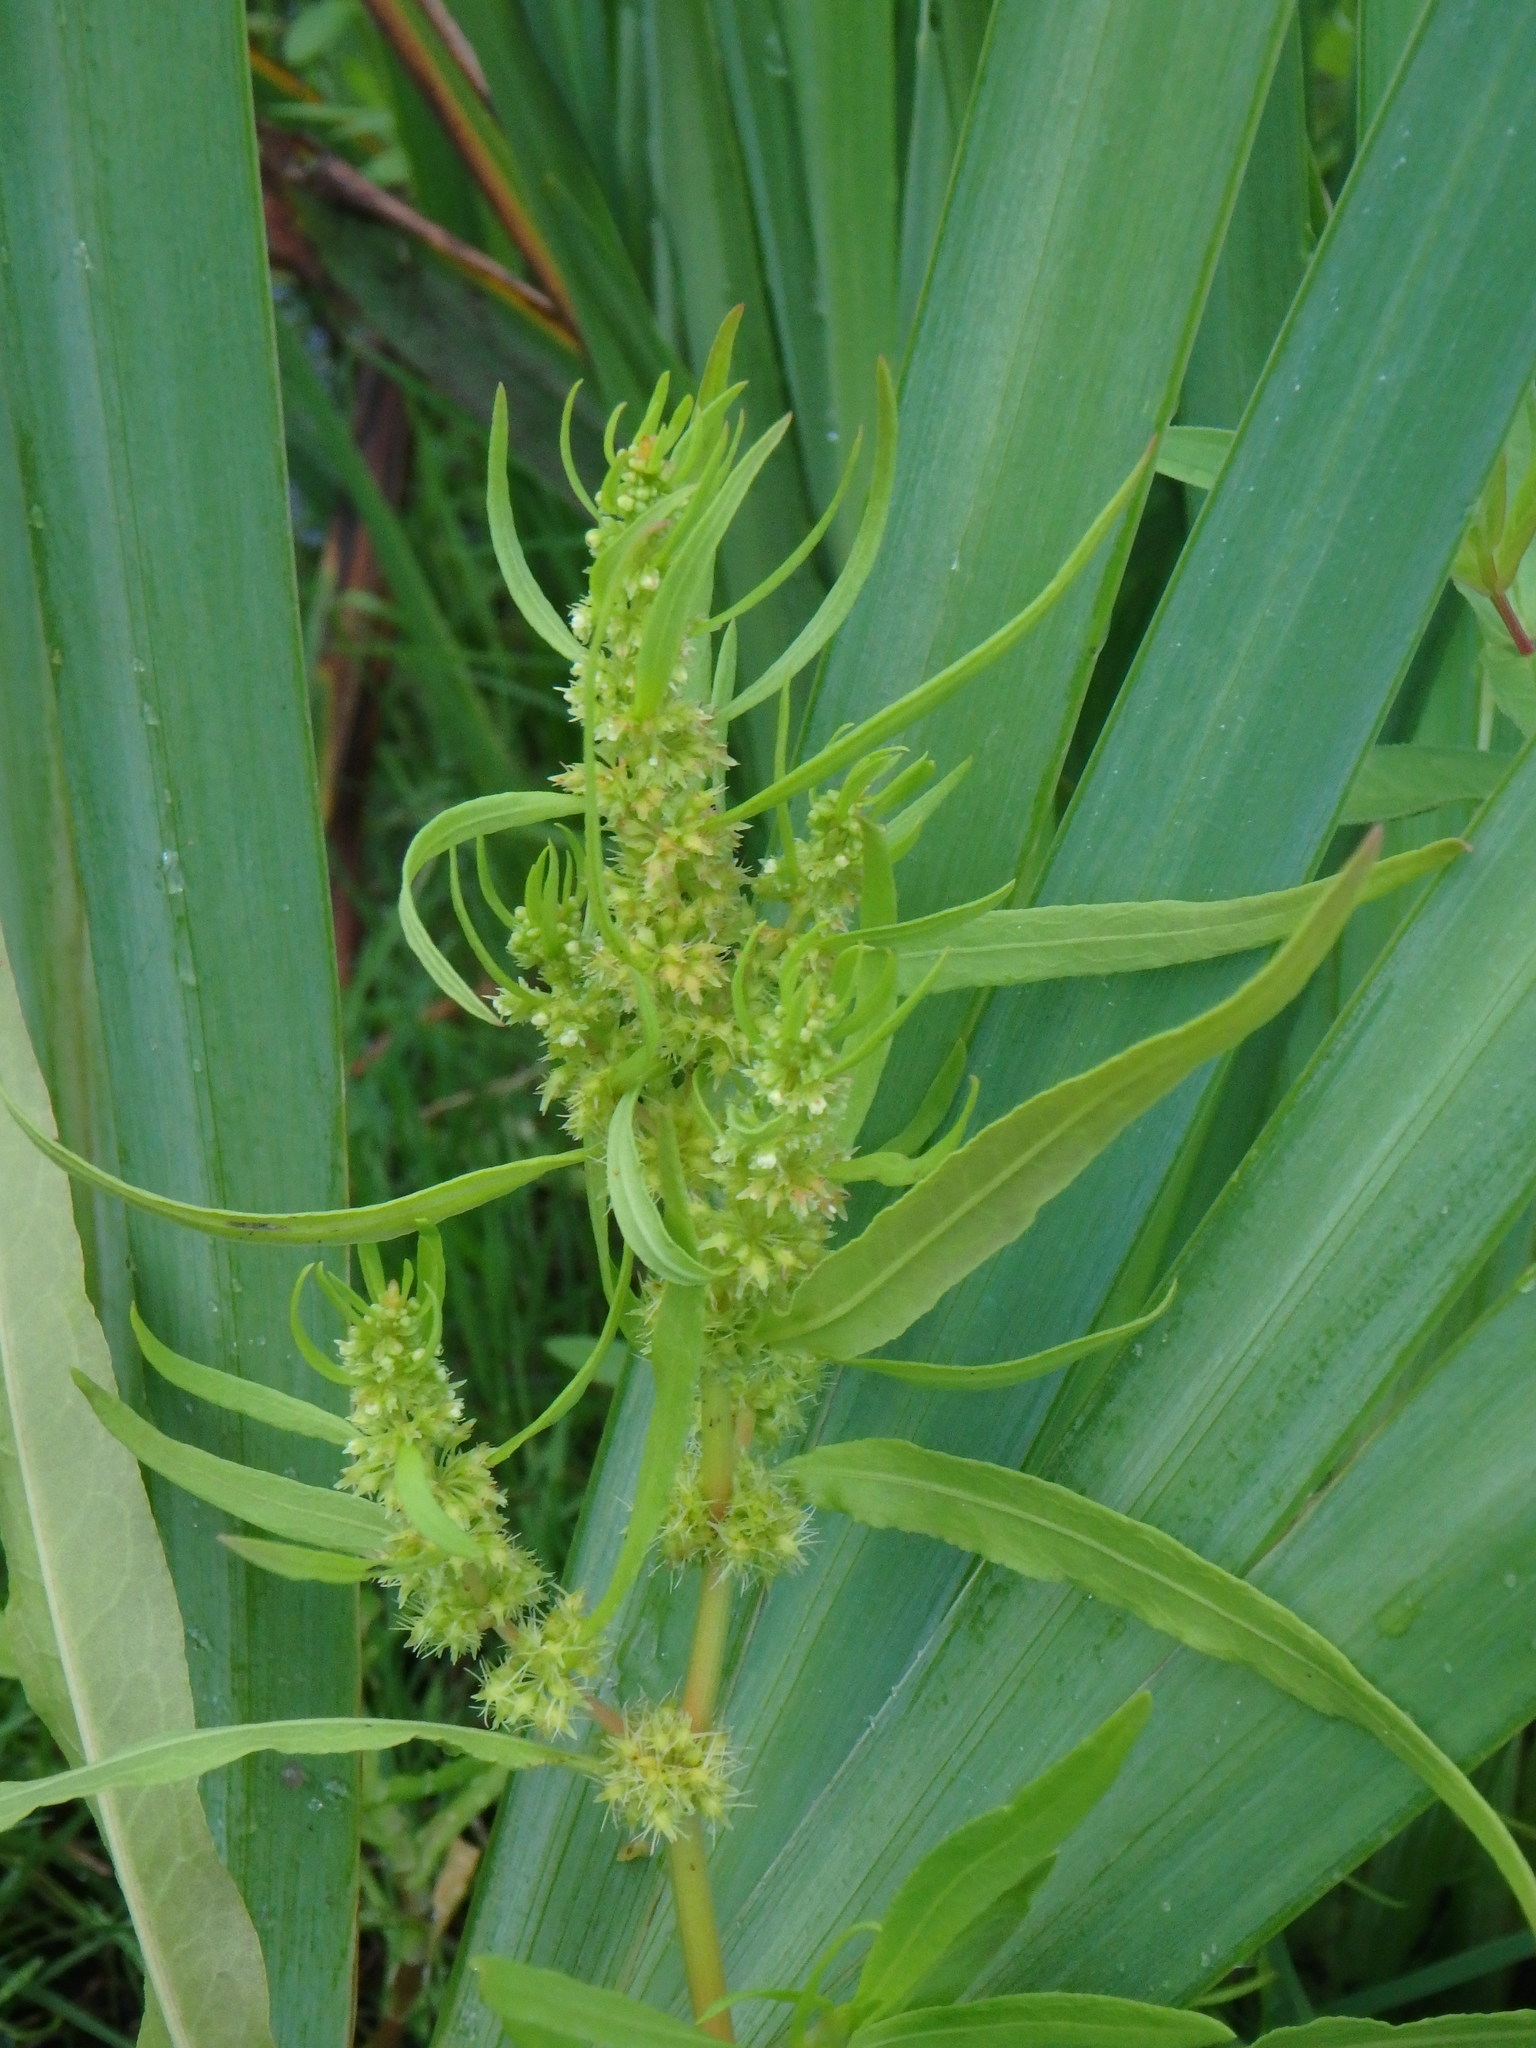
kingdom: Plantae
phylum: Tracheophyta
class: Magnoliopsida
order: Caryophyllales
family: Polygonaceae
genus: Rumex
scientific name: Rumex maritimus
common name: Golden dock
